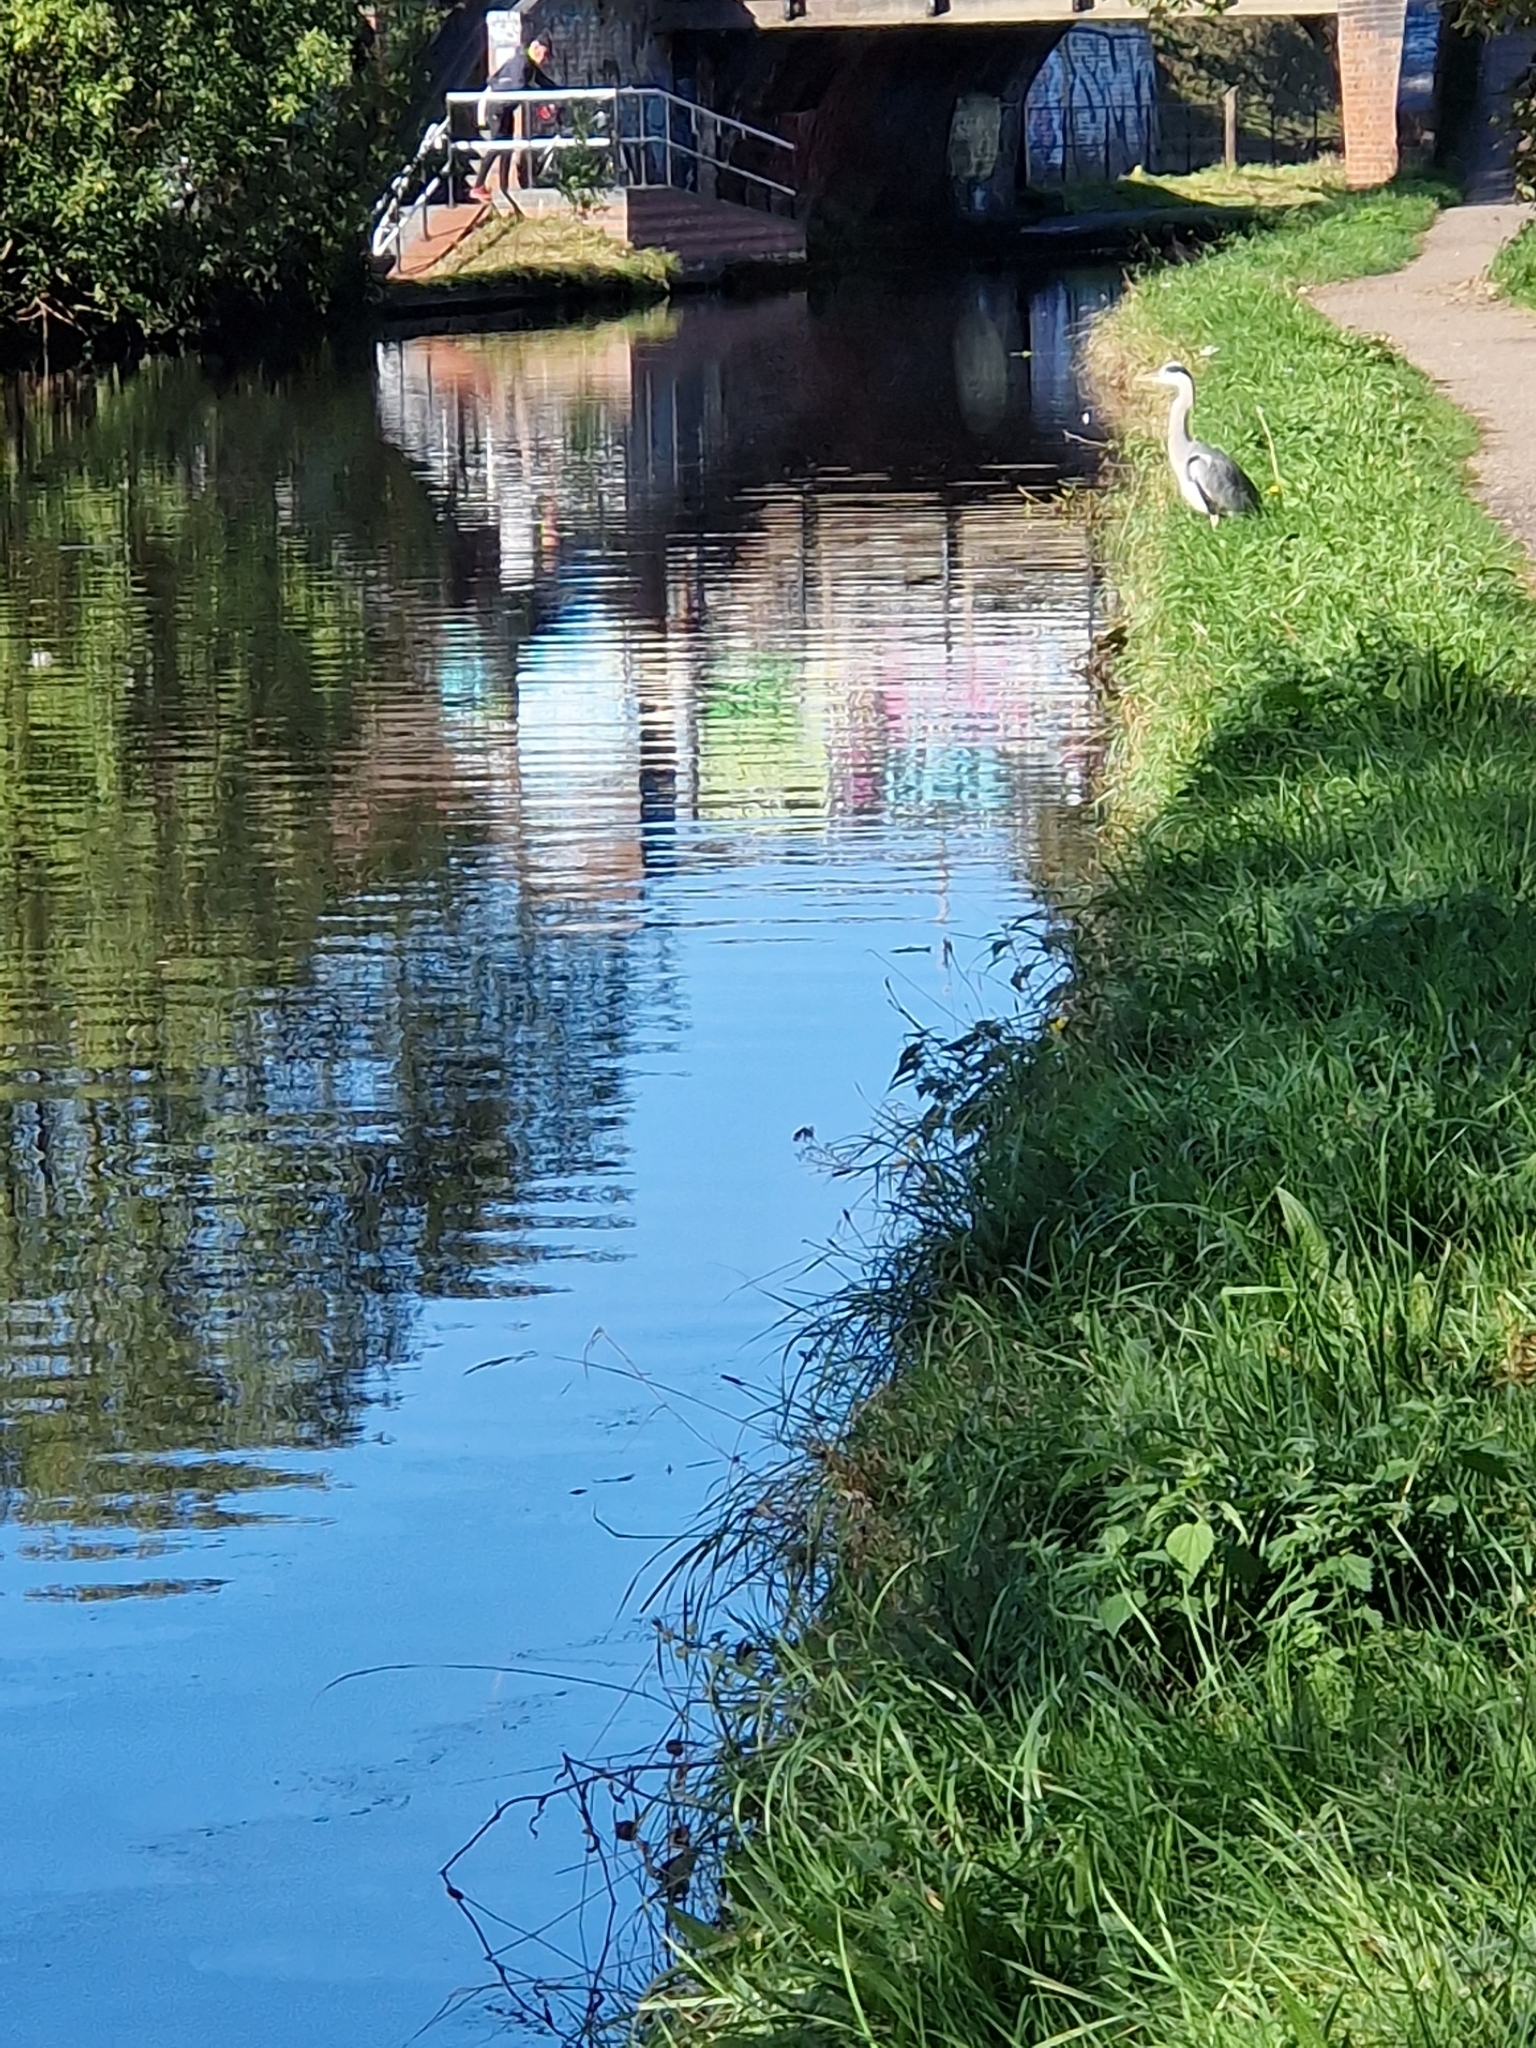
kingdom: Animalia
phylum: Chordata
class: Aves
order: Pelecaniformes
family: Ardeidae
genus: Ardea
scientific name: Ardea cinerea
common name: Grey heron
